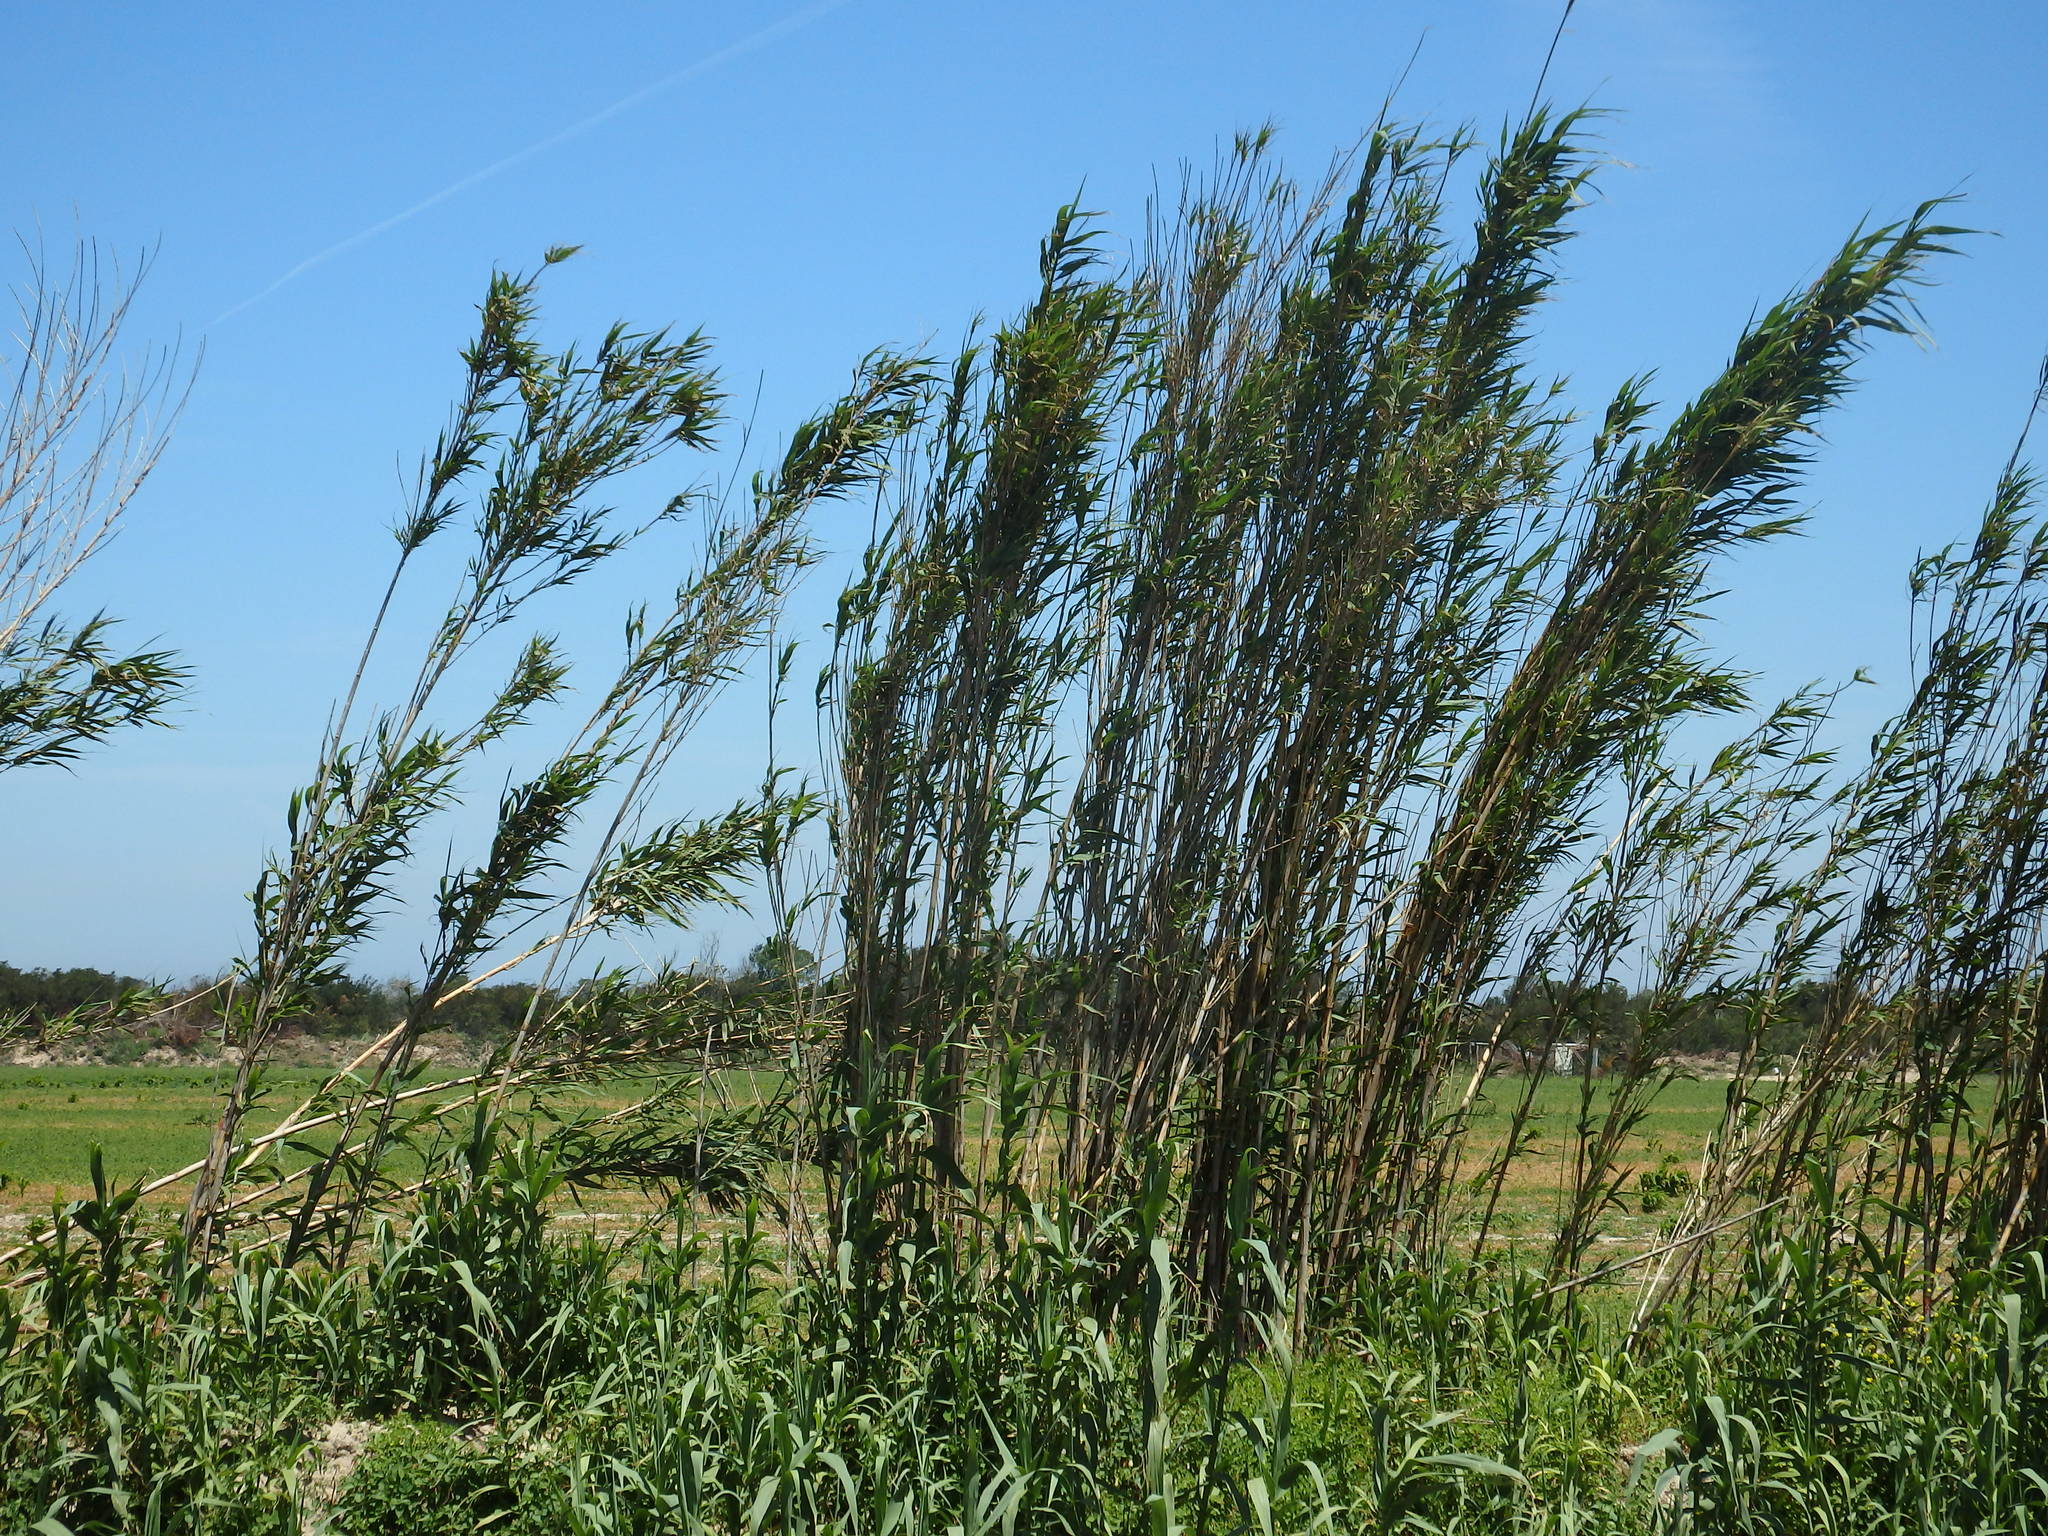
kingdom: Plantae
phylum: Tracheophyta
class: Liliopsida
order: Poales
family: Poaceae
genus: Arundo
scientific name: Arundo donax
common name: Giant reed
